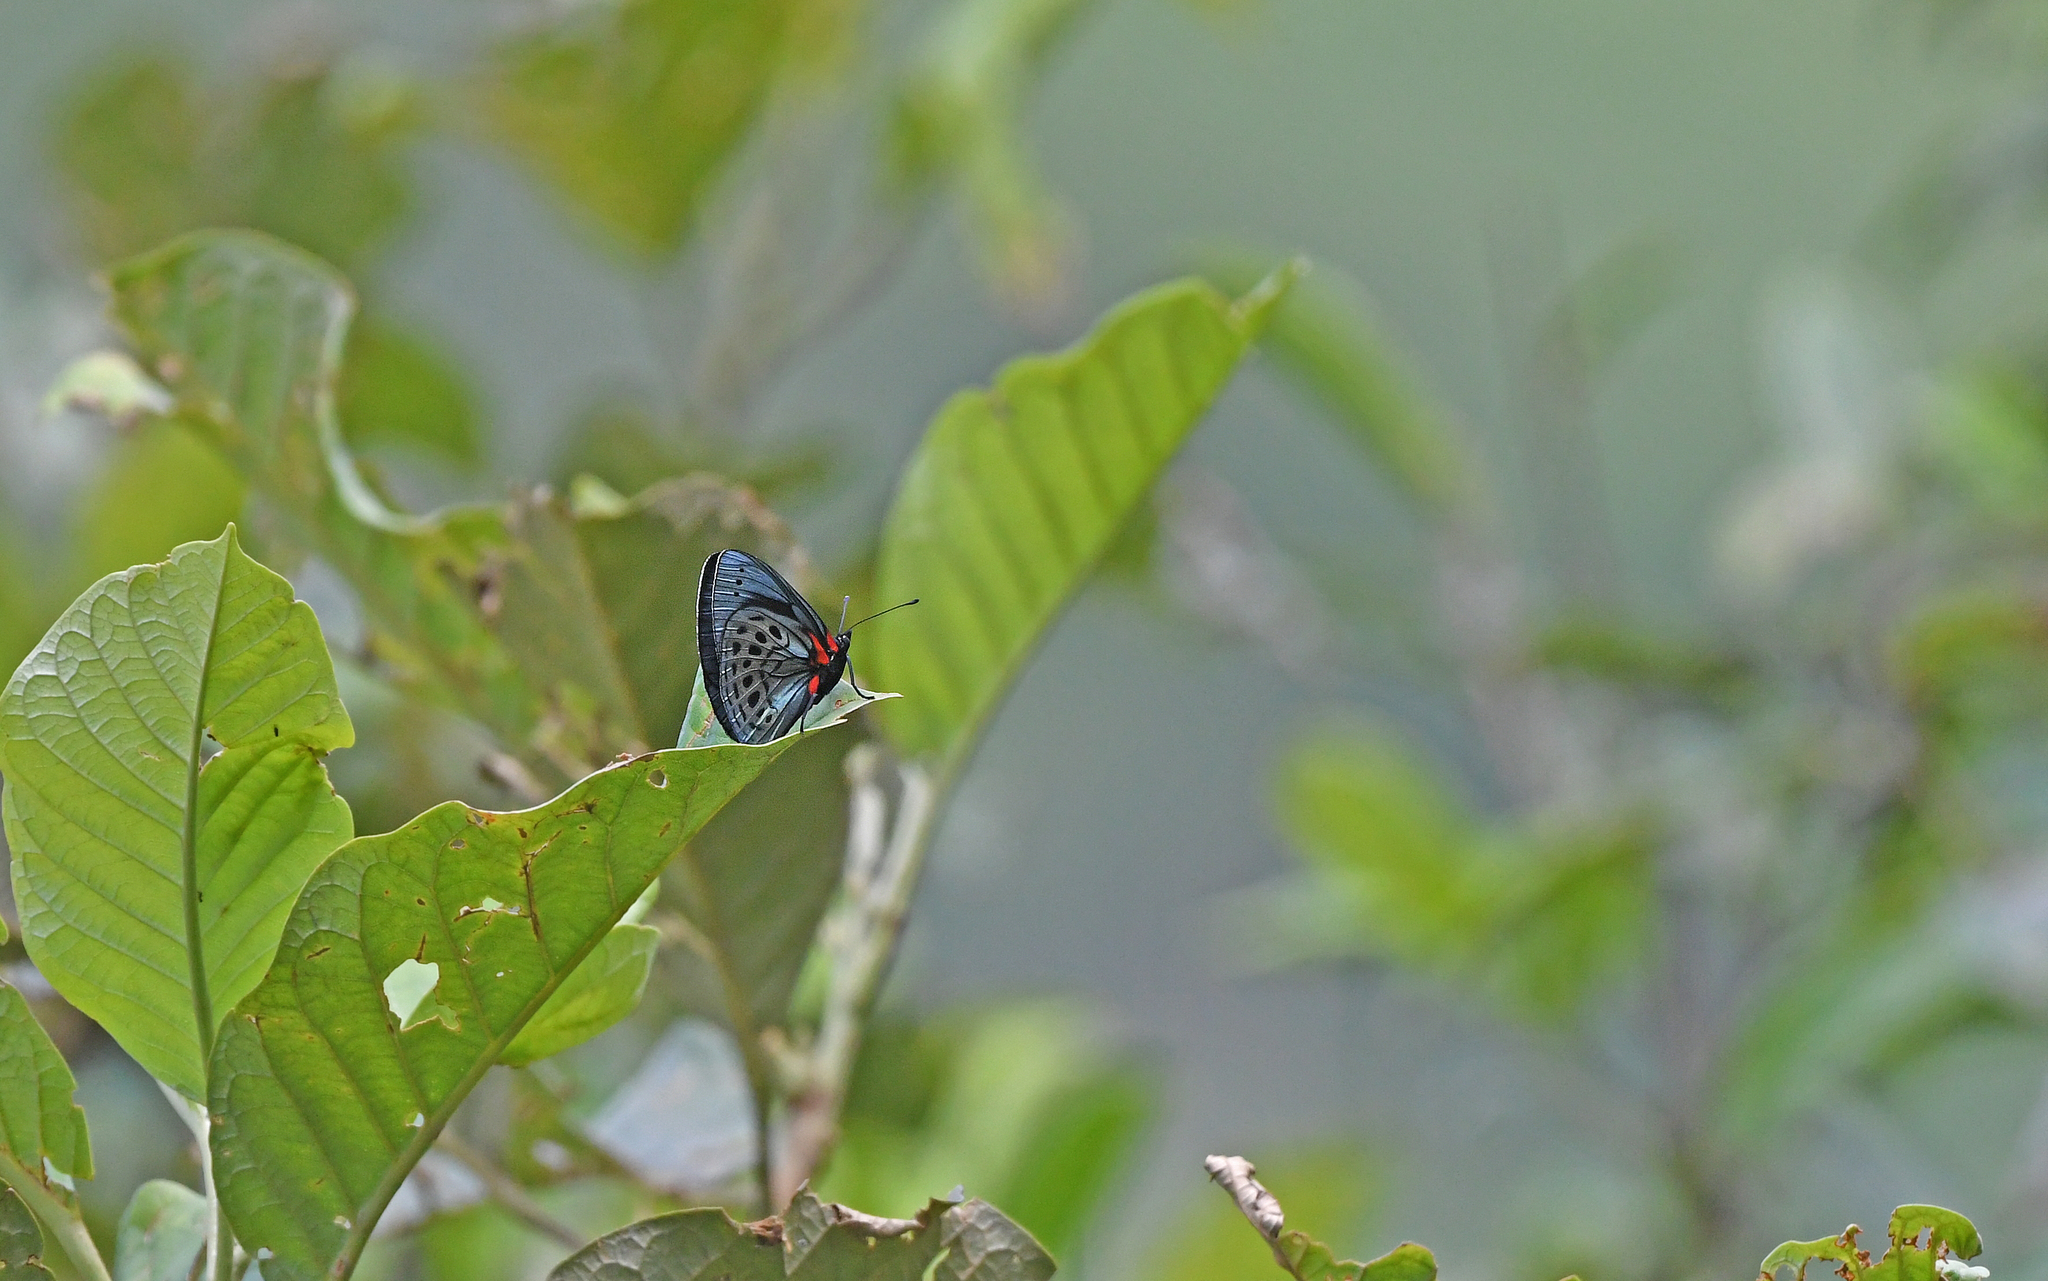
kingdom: Animalia
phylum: Arthropoda
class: Insecta
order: Lepidoptera
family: Nymphalidae
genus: Asterope
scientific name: Asterope leprieuri
